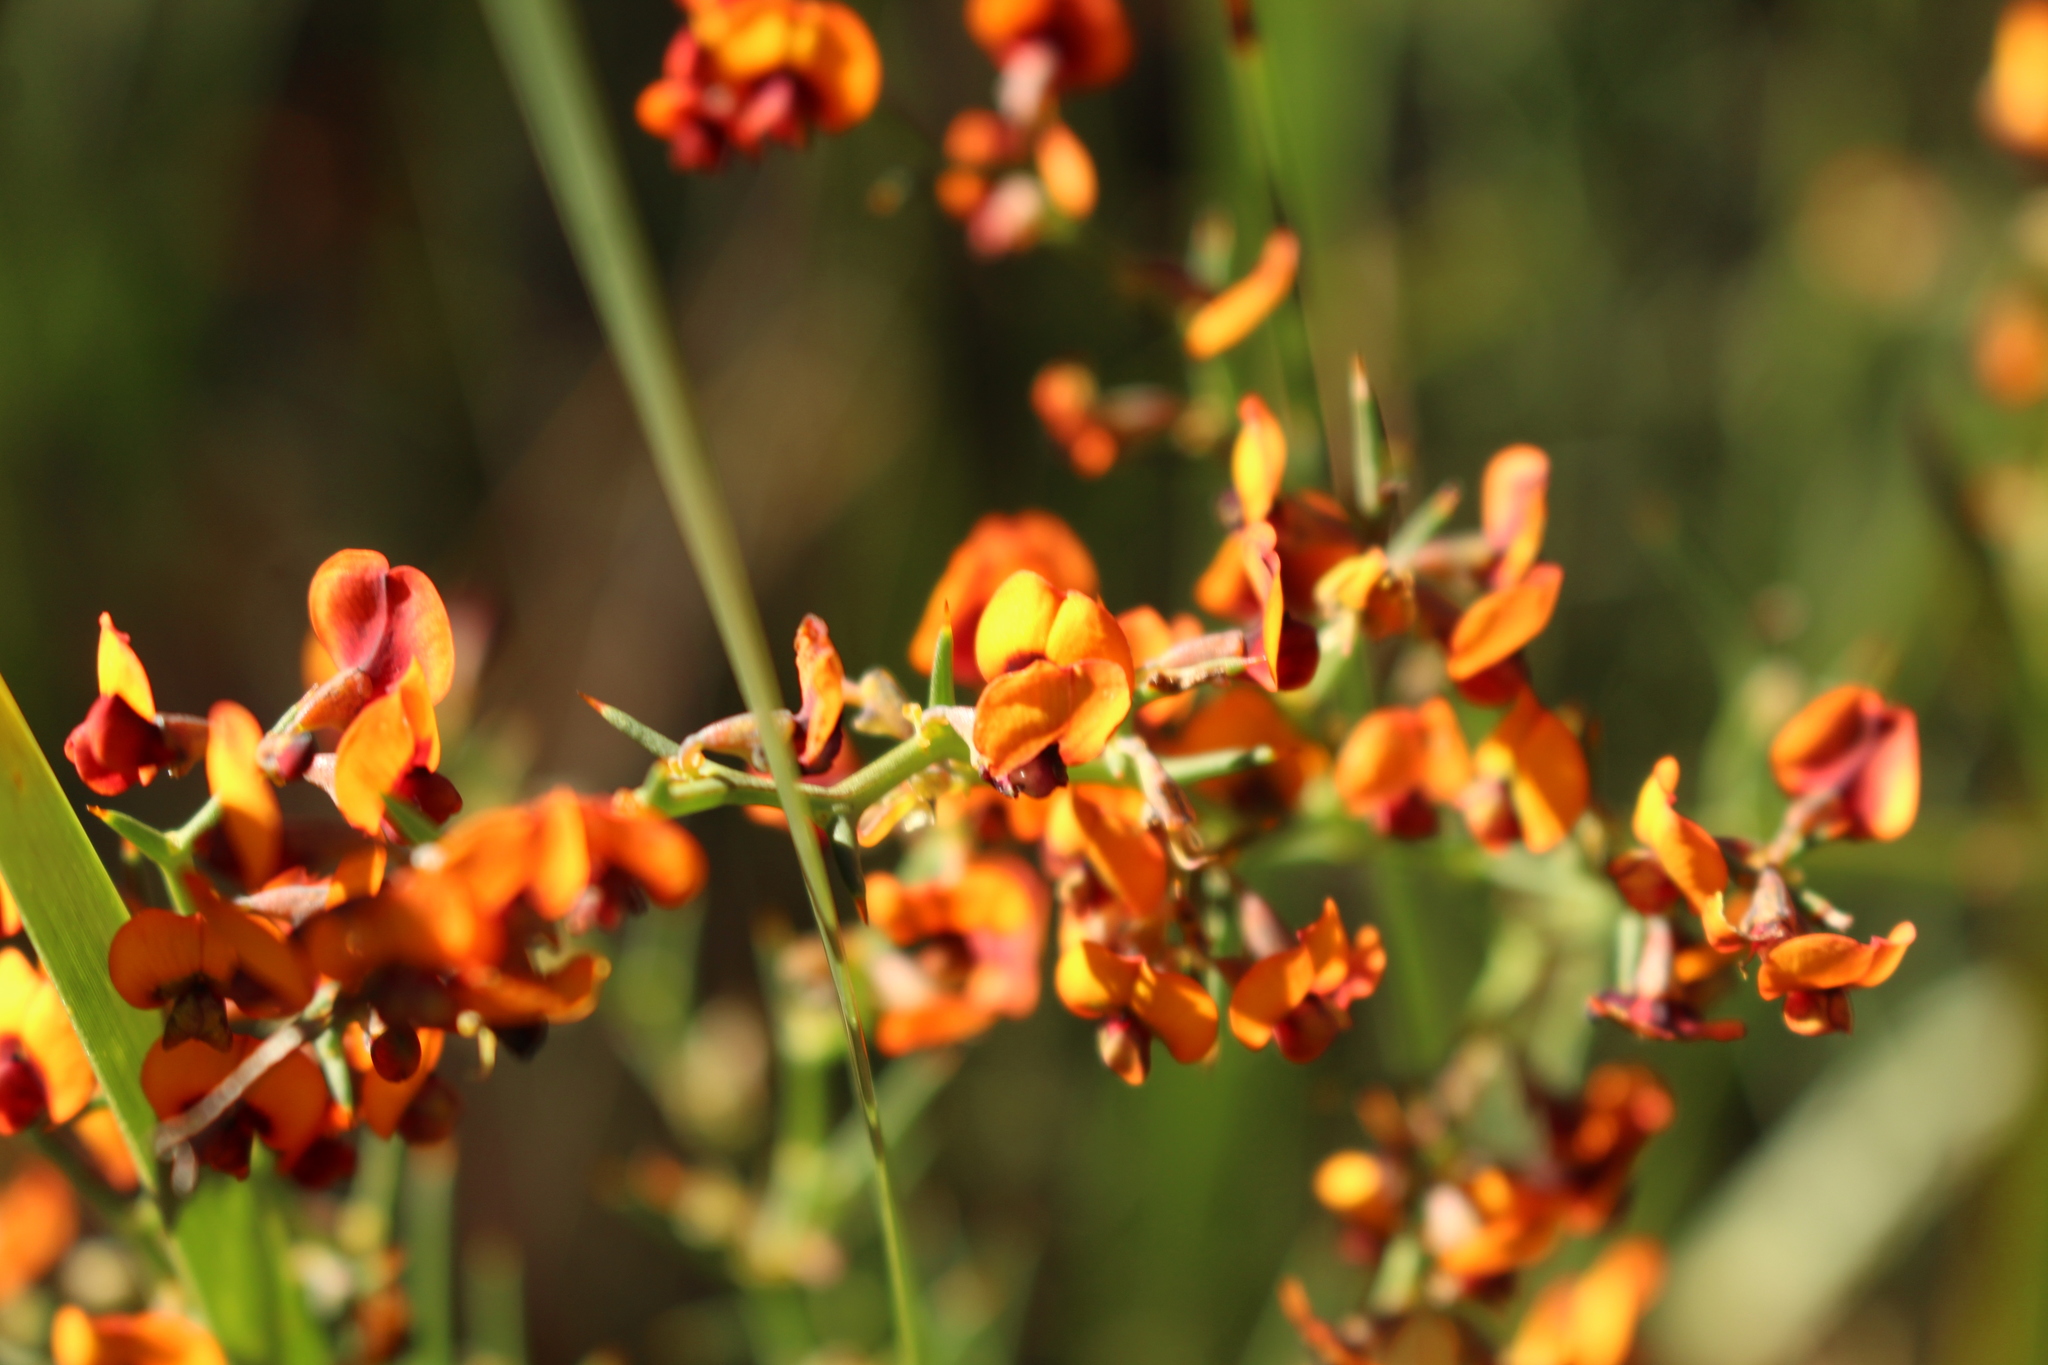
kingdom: Plantae
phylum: Tracheophyta
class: Magnoliopsida
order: Fabales
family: Fabaceae
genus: Daviesia
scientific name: Daviesia flexuosa
